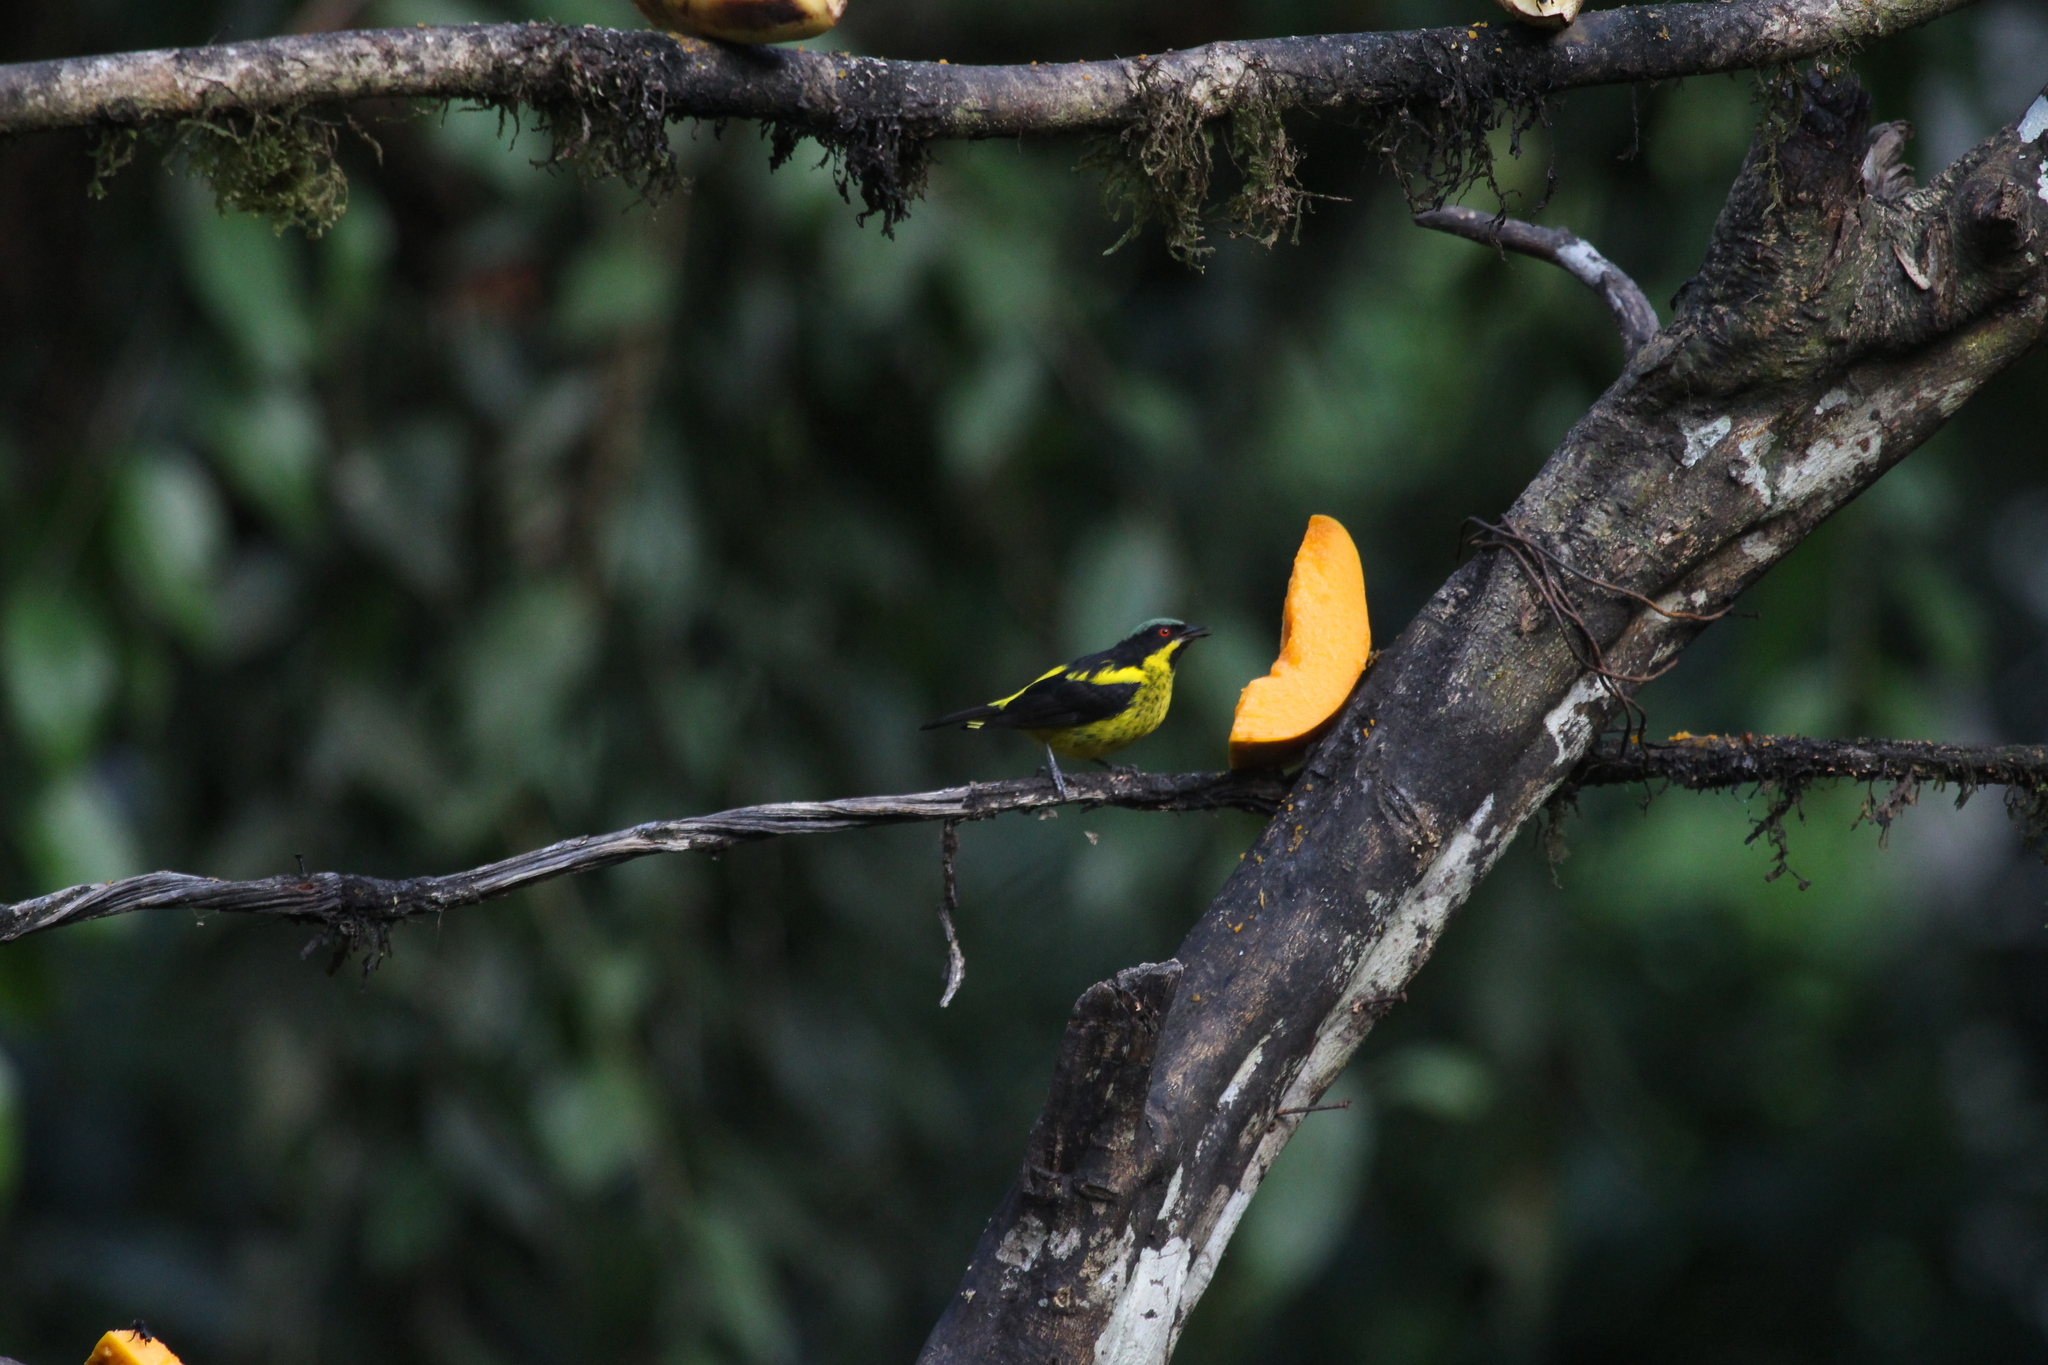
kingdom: Animalia
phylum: Chordata
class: Aves
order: Passeriformes
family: Thraupidae
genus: Dacnis
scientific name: Dacnis flaviventer
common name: Yellow-bellied dacnis
